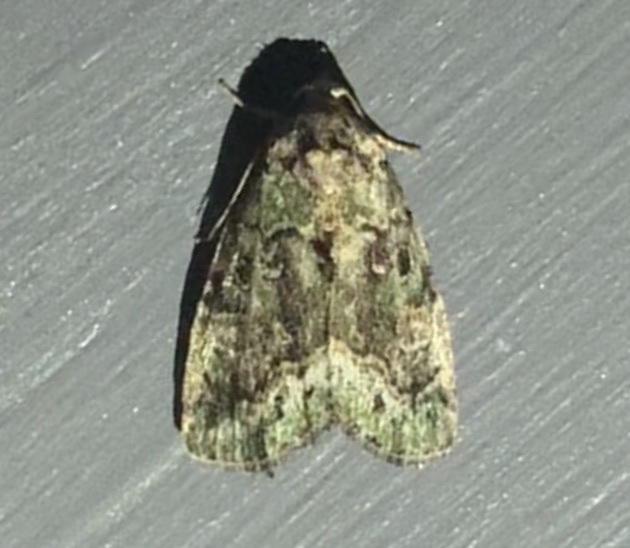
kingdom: Animalia
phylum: Arthropoda
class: Insecta
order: Lepidoptera
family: Noctuidae
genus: Lithacodia
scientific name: Lithacodia musta
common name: Small mossy glyph
